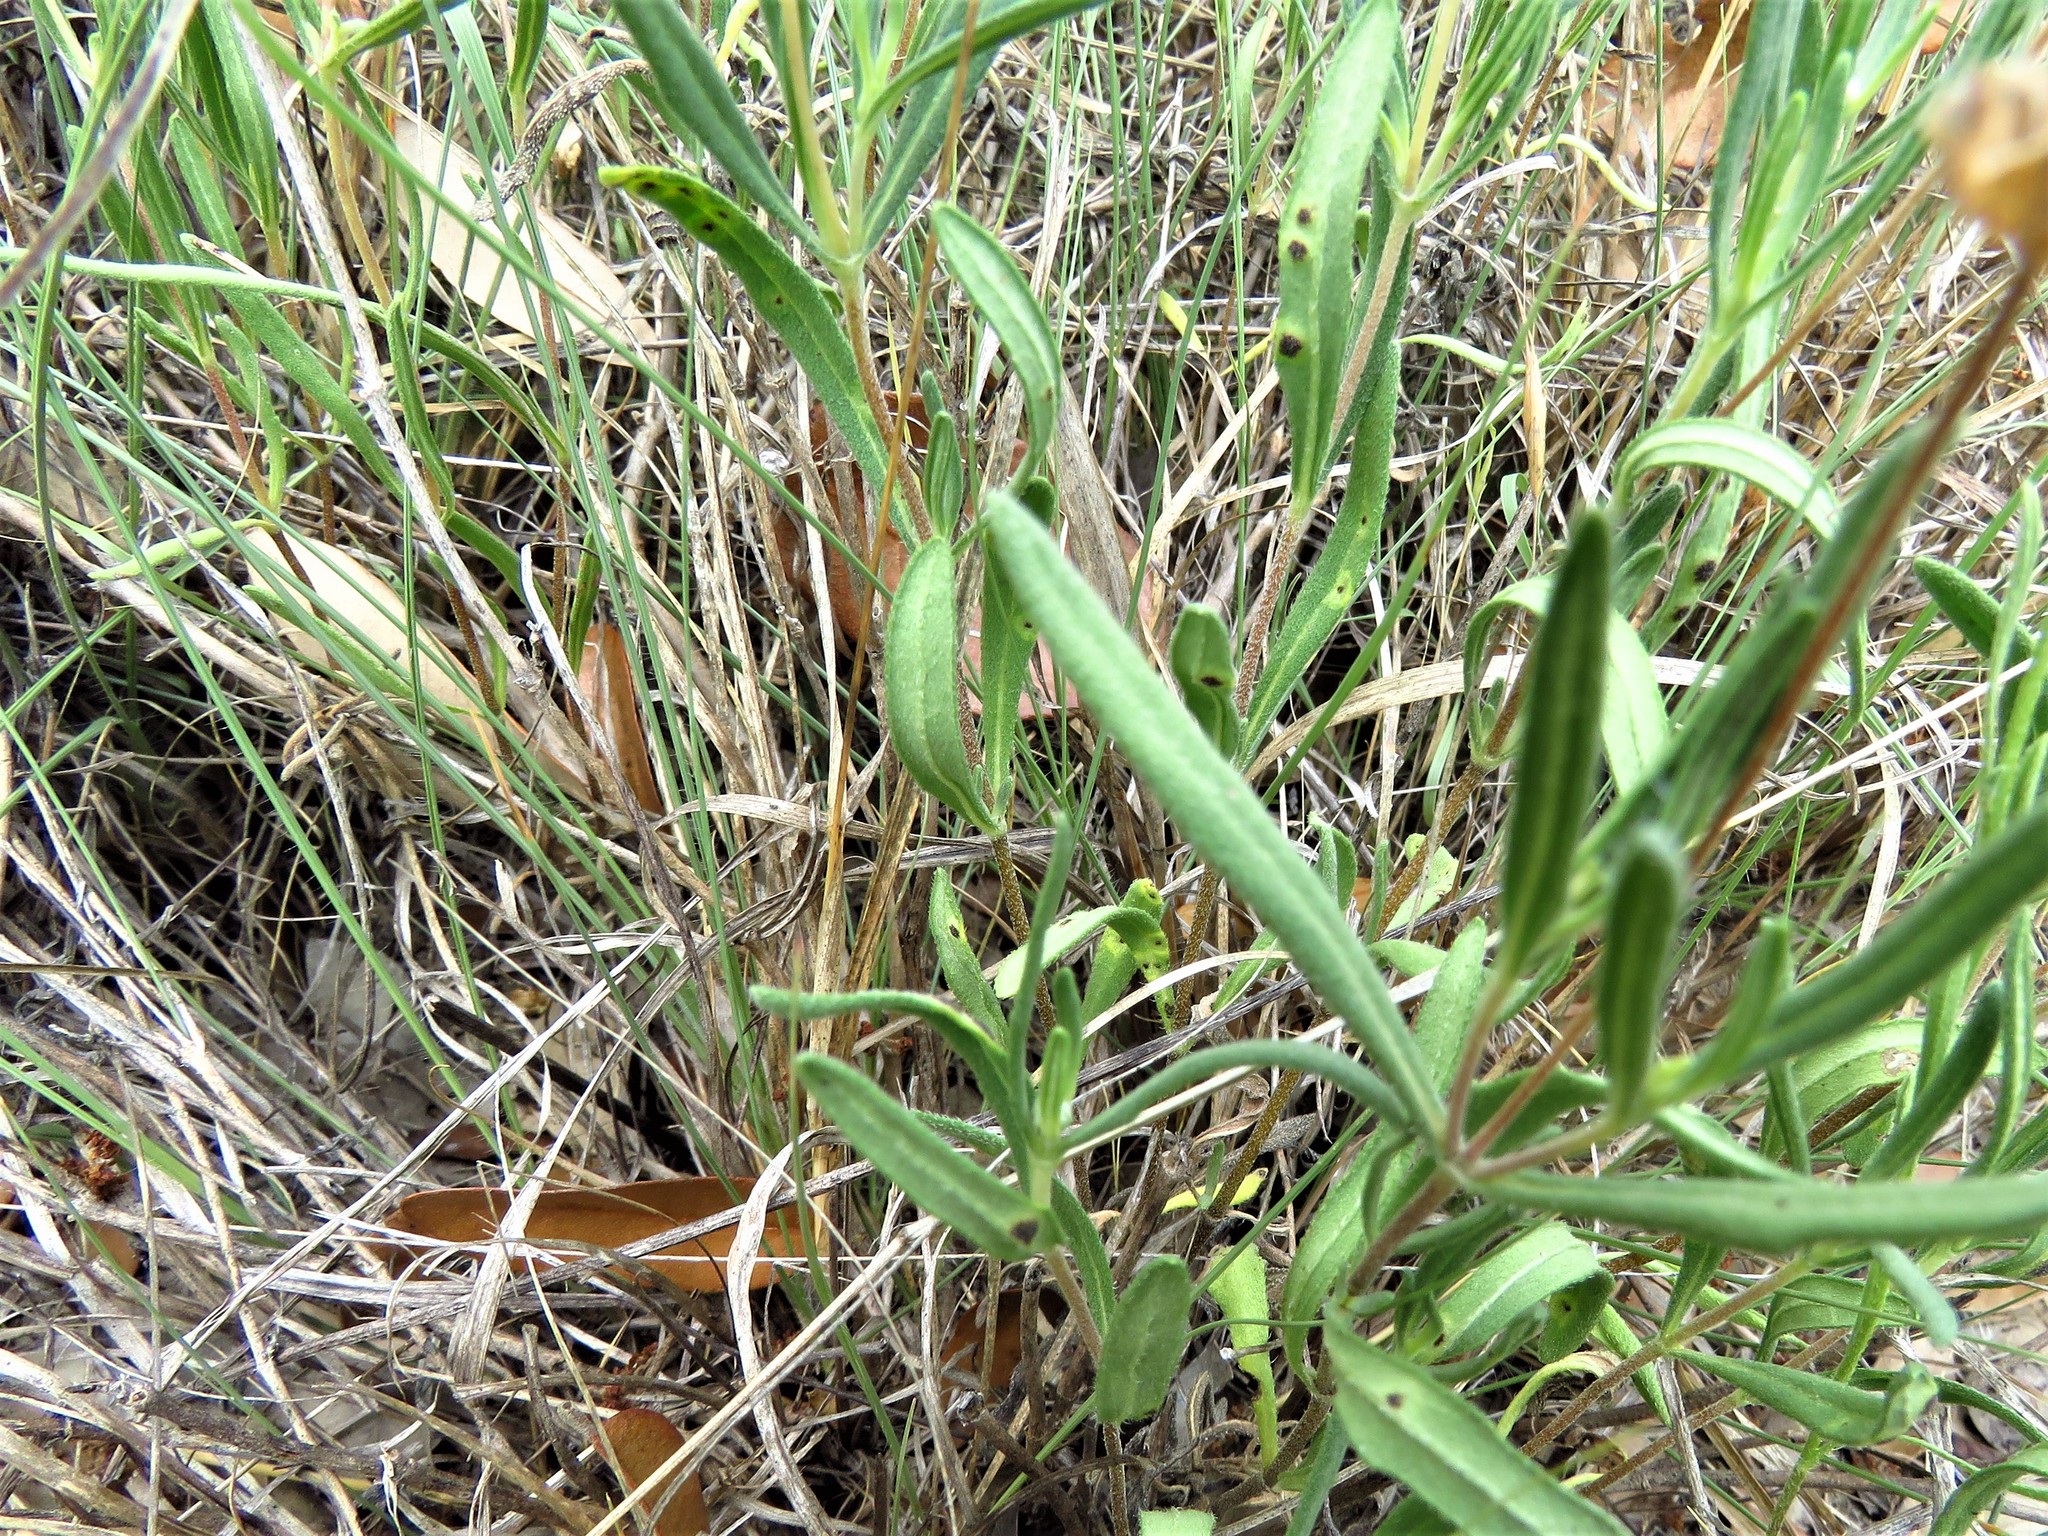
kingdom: Plantae
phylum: Tracheophyta
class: Magnoliopsida
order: Asterales
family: Asteraceae
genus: Melampodium
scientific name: Melampodium leucanthum
